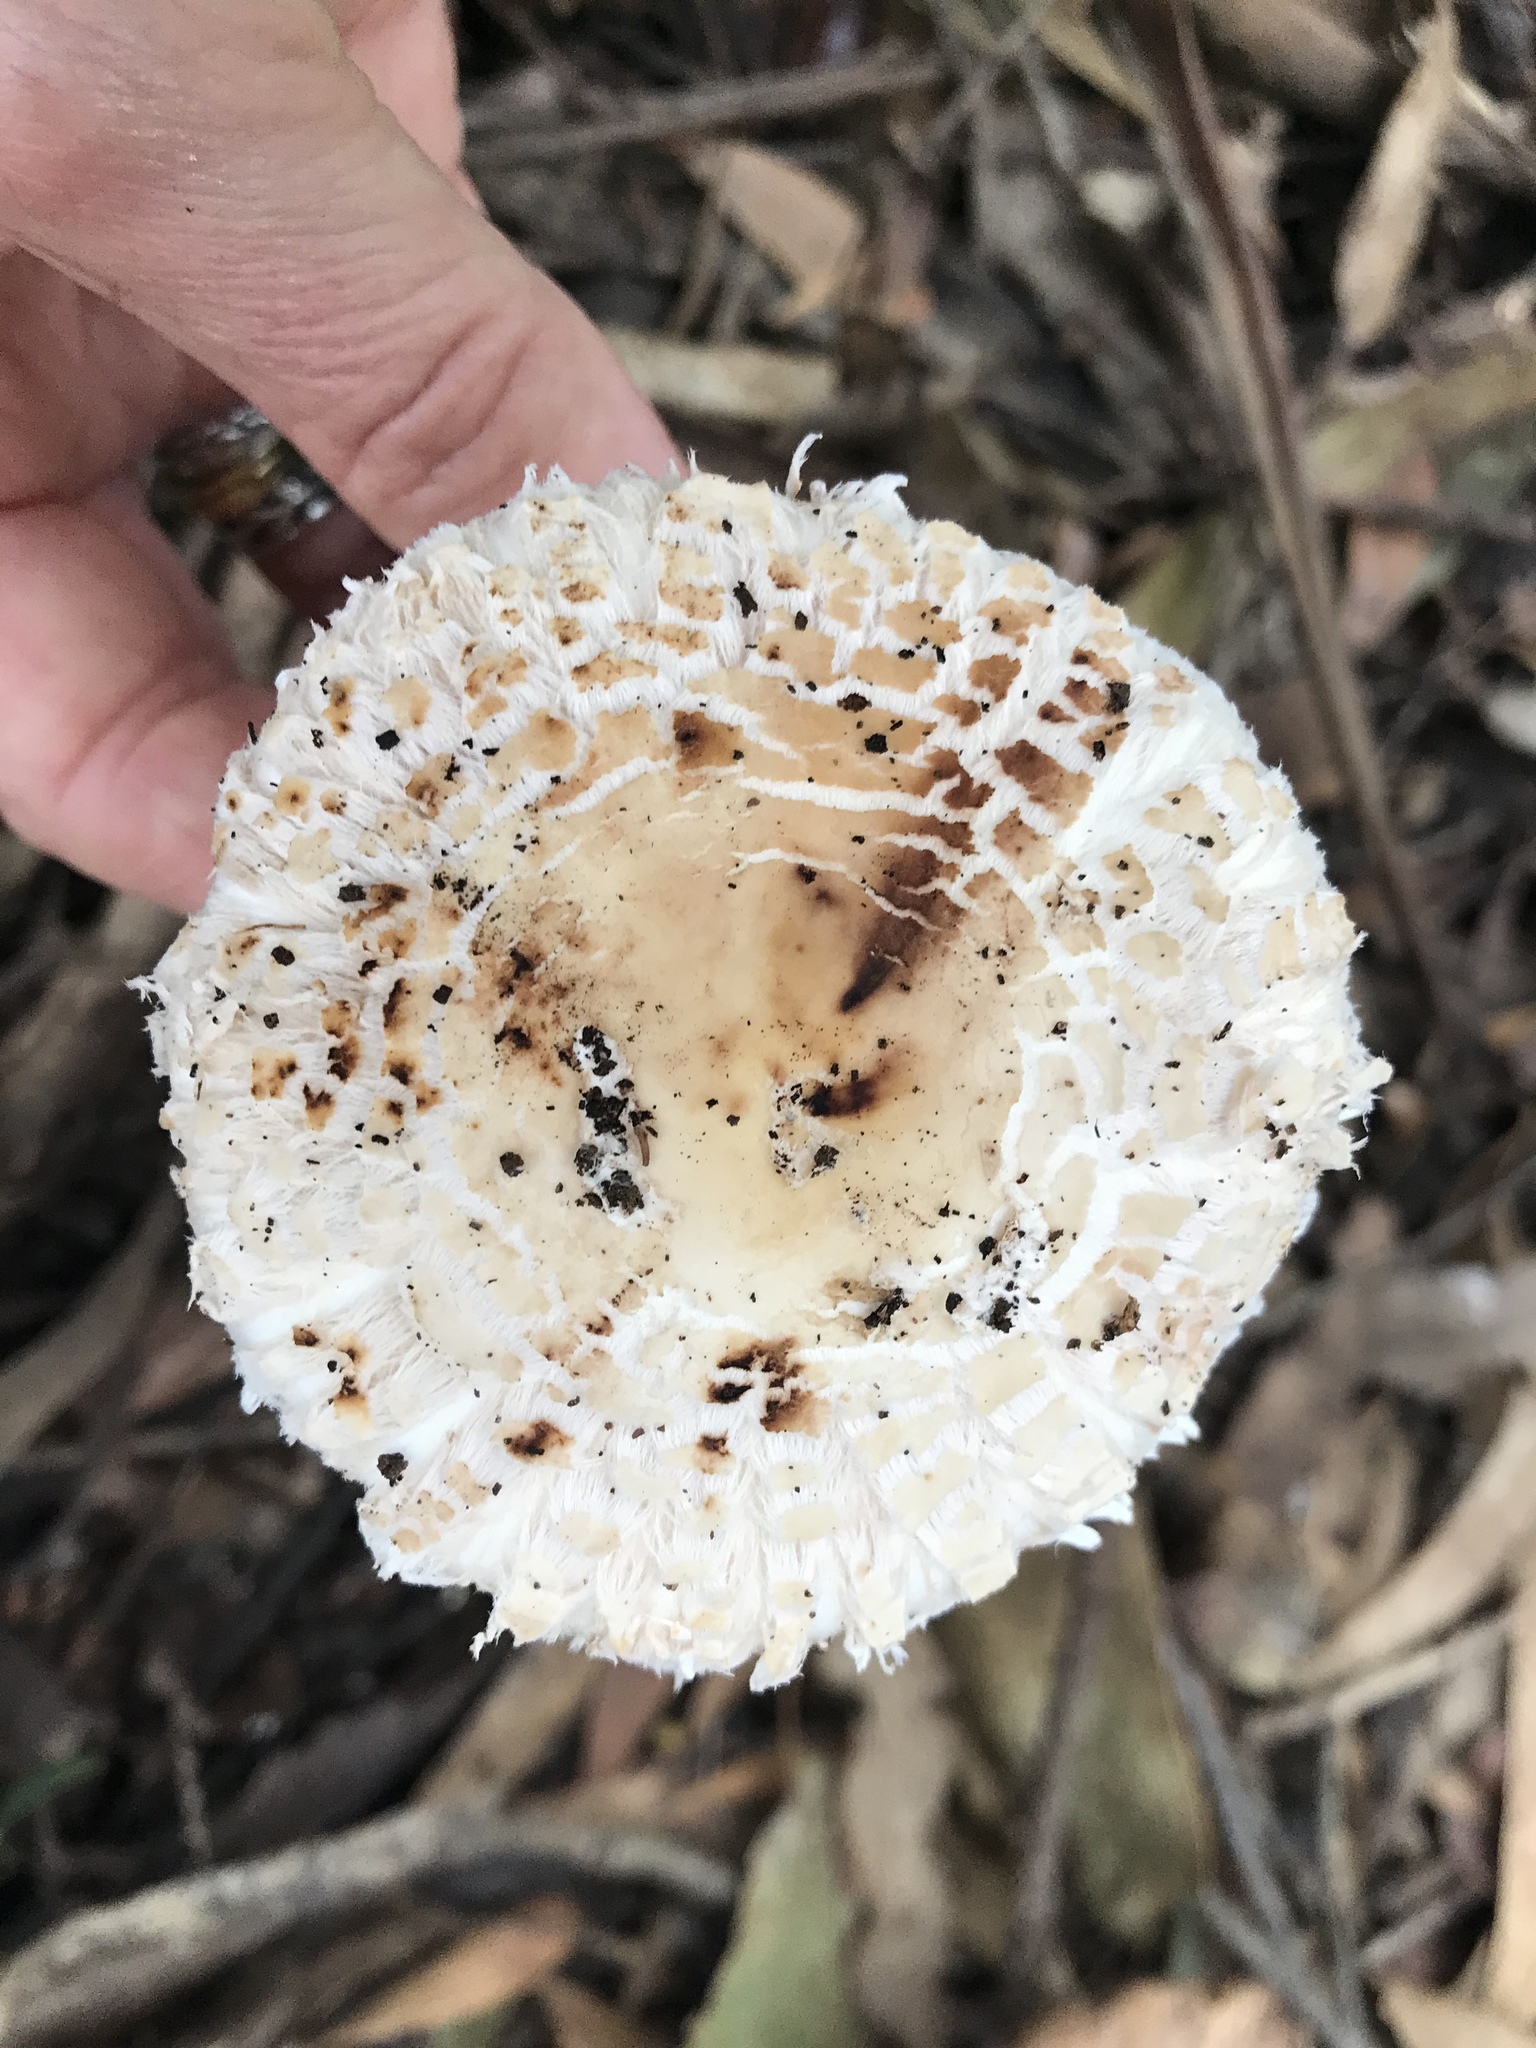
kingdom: Fungi
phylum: Basidiomycota
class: Agaricomycetes
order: Agaricales
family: Agaricaceae
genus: Chlorophyllum
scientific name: Chlorophyllum brunneum
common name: Brown parasol
